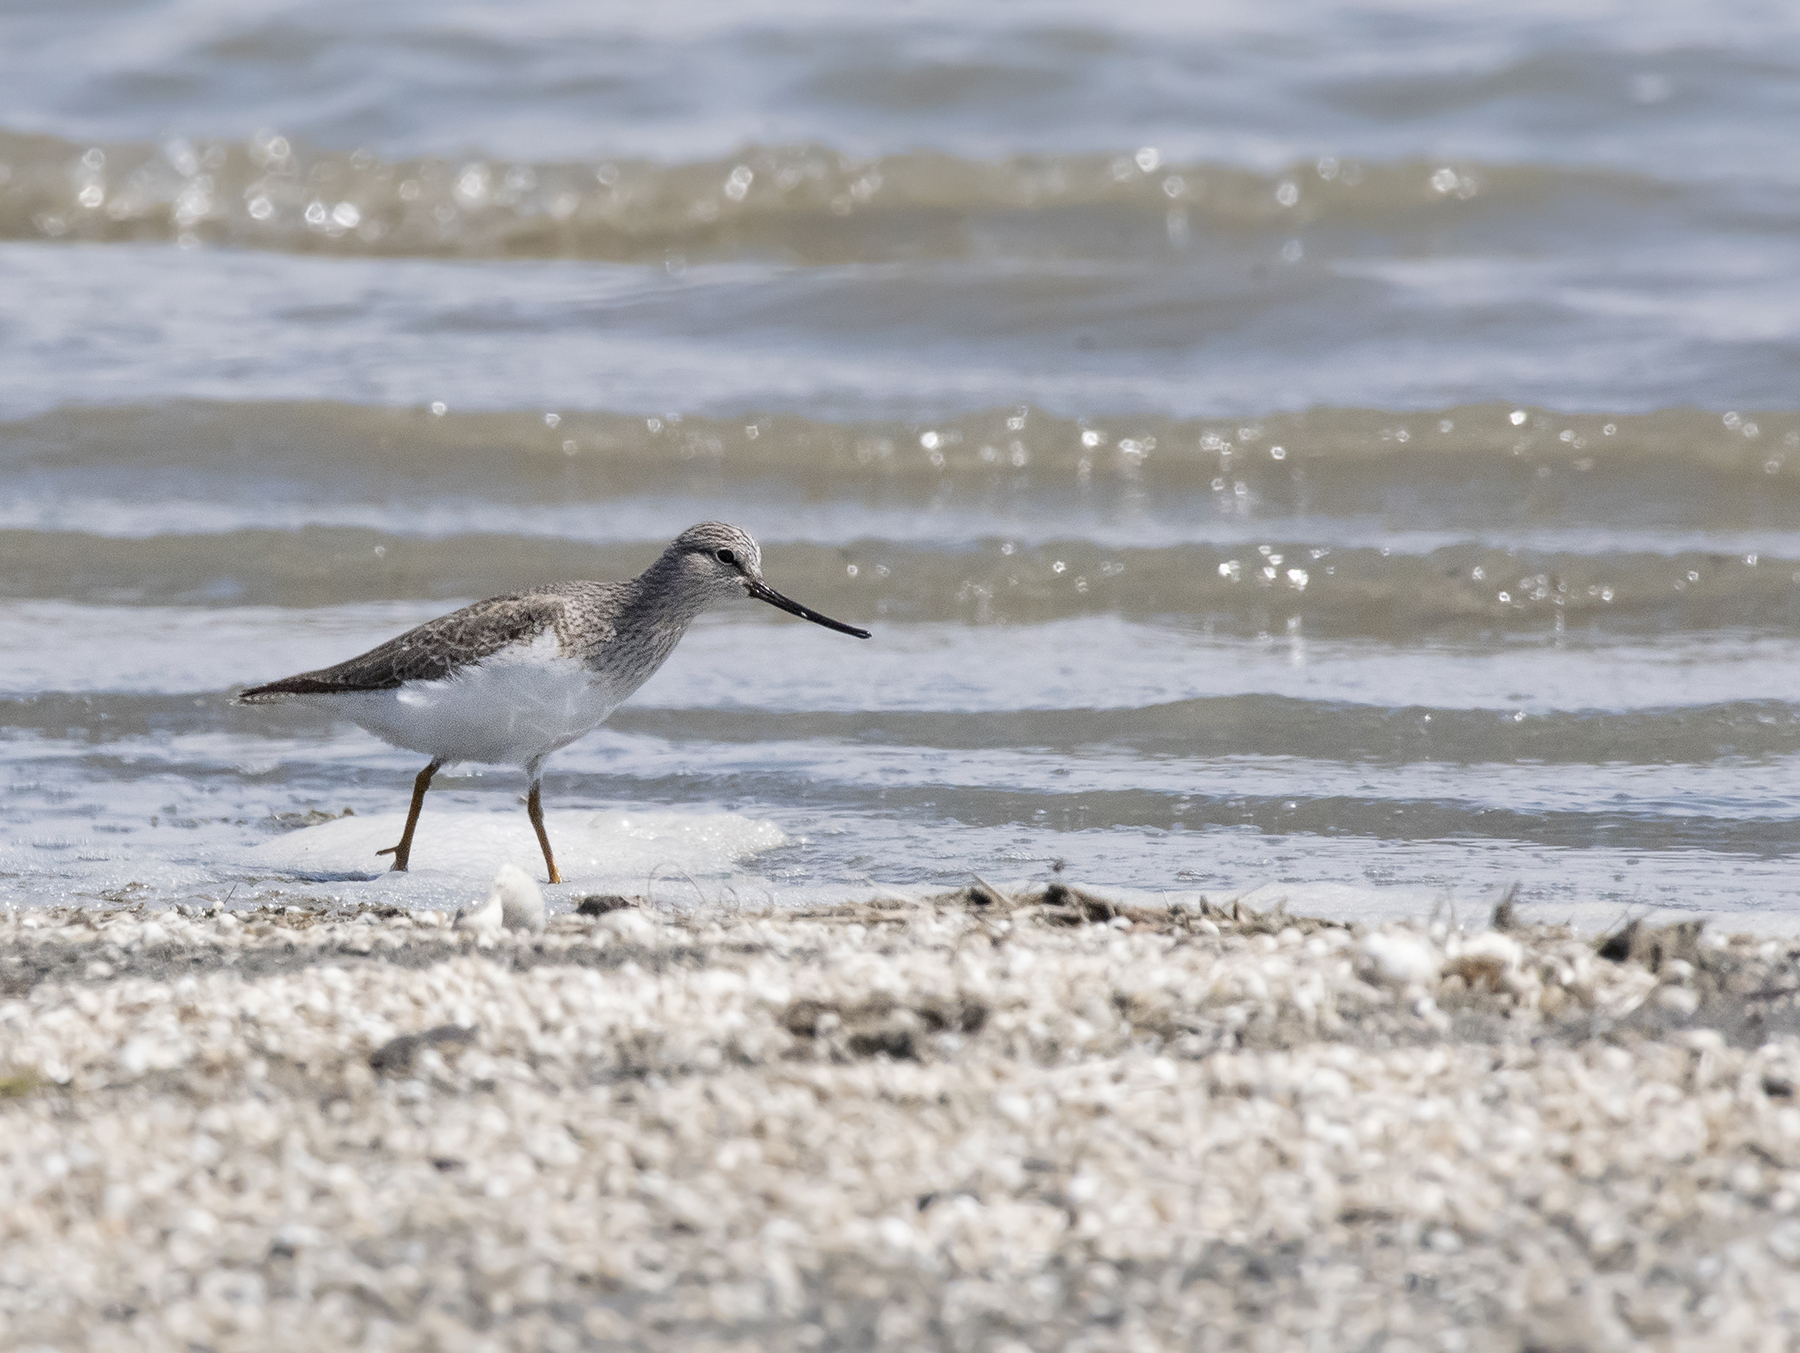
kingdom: Animalia
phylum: Chordata
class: Aves
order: Charadriiformes
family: Scolopacidae
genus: Xenus
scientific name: Xenus cinereus
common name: Terek sandpiper
